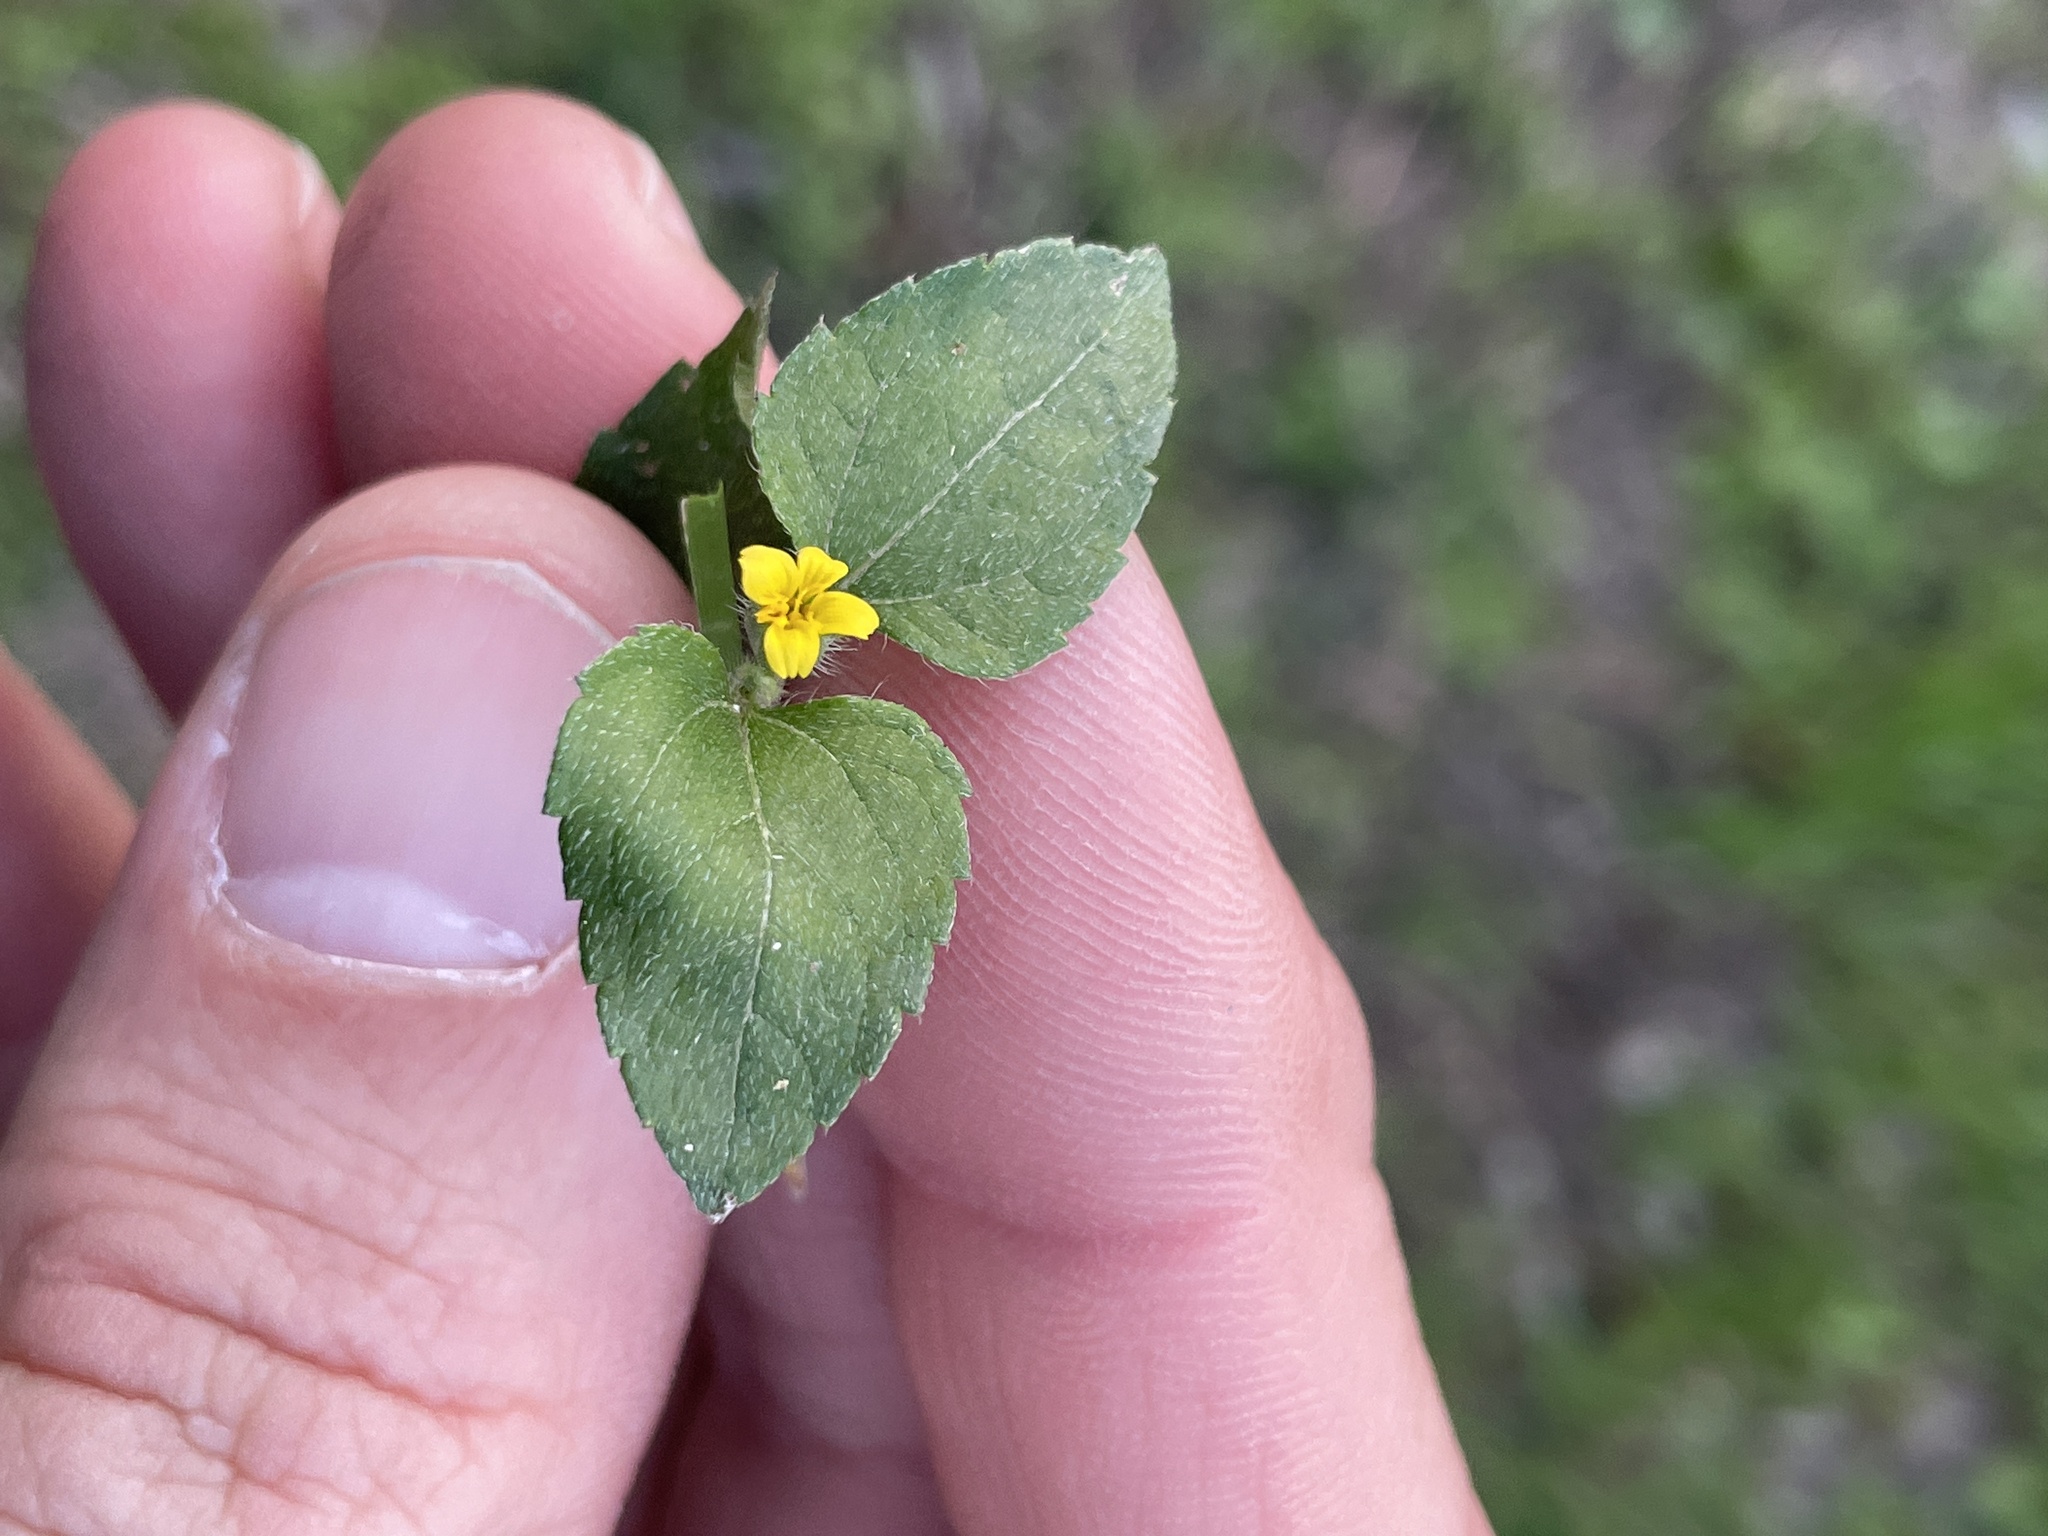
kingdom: Plantae
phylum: Tracheophyta
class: Magnoliopsida
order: Asterales
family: Asteraceae
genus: Calyptocarpus
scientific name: Calyptocarpus vialis
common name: Straggler daisy
